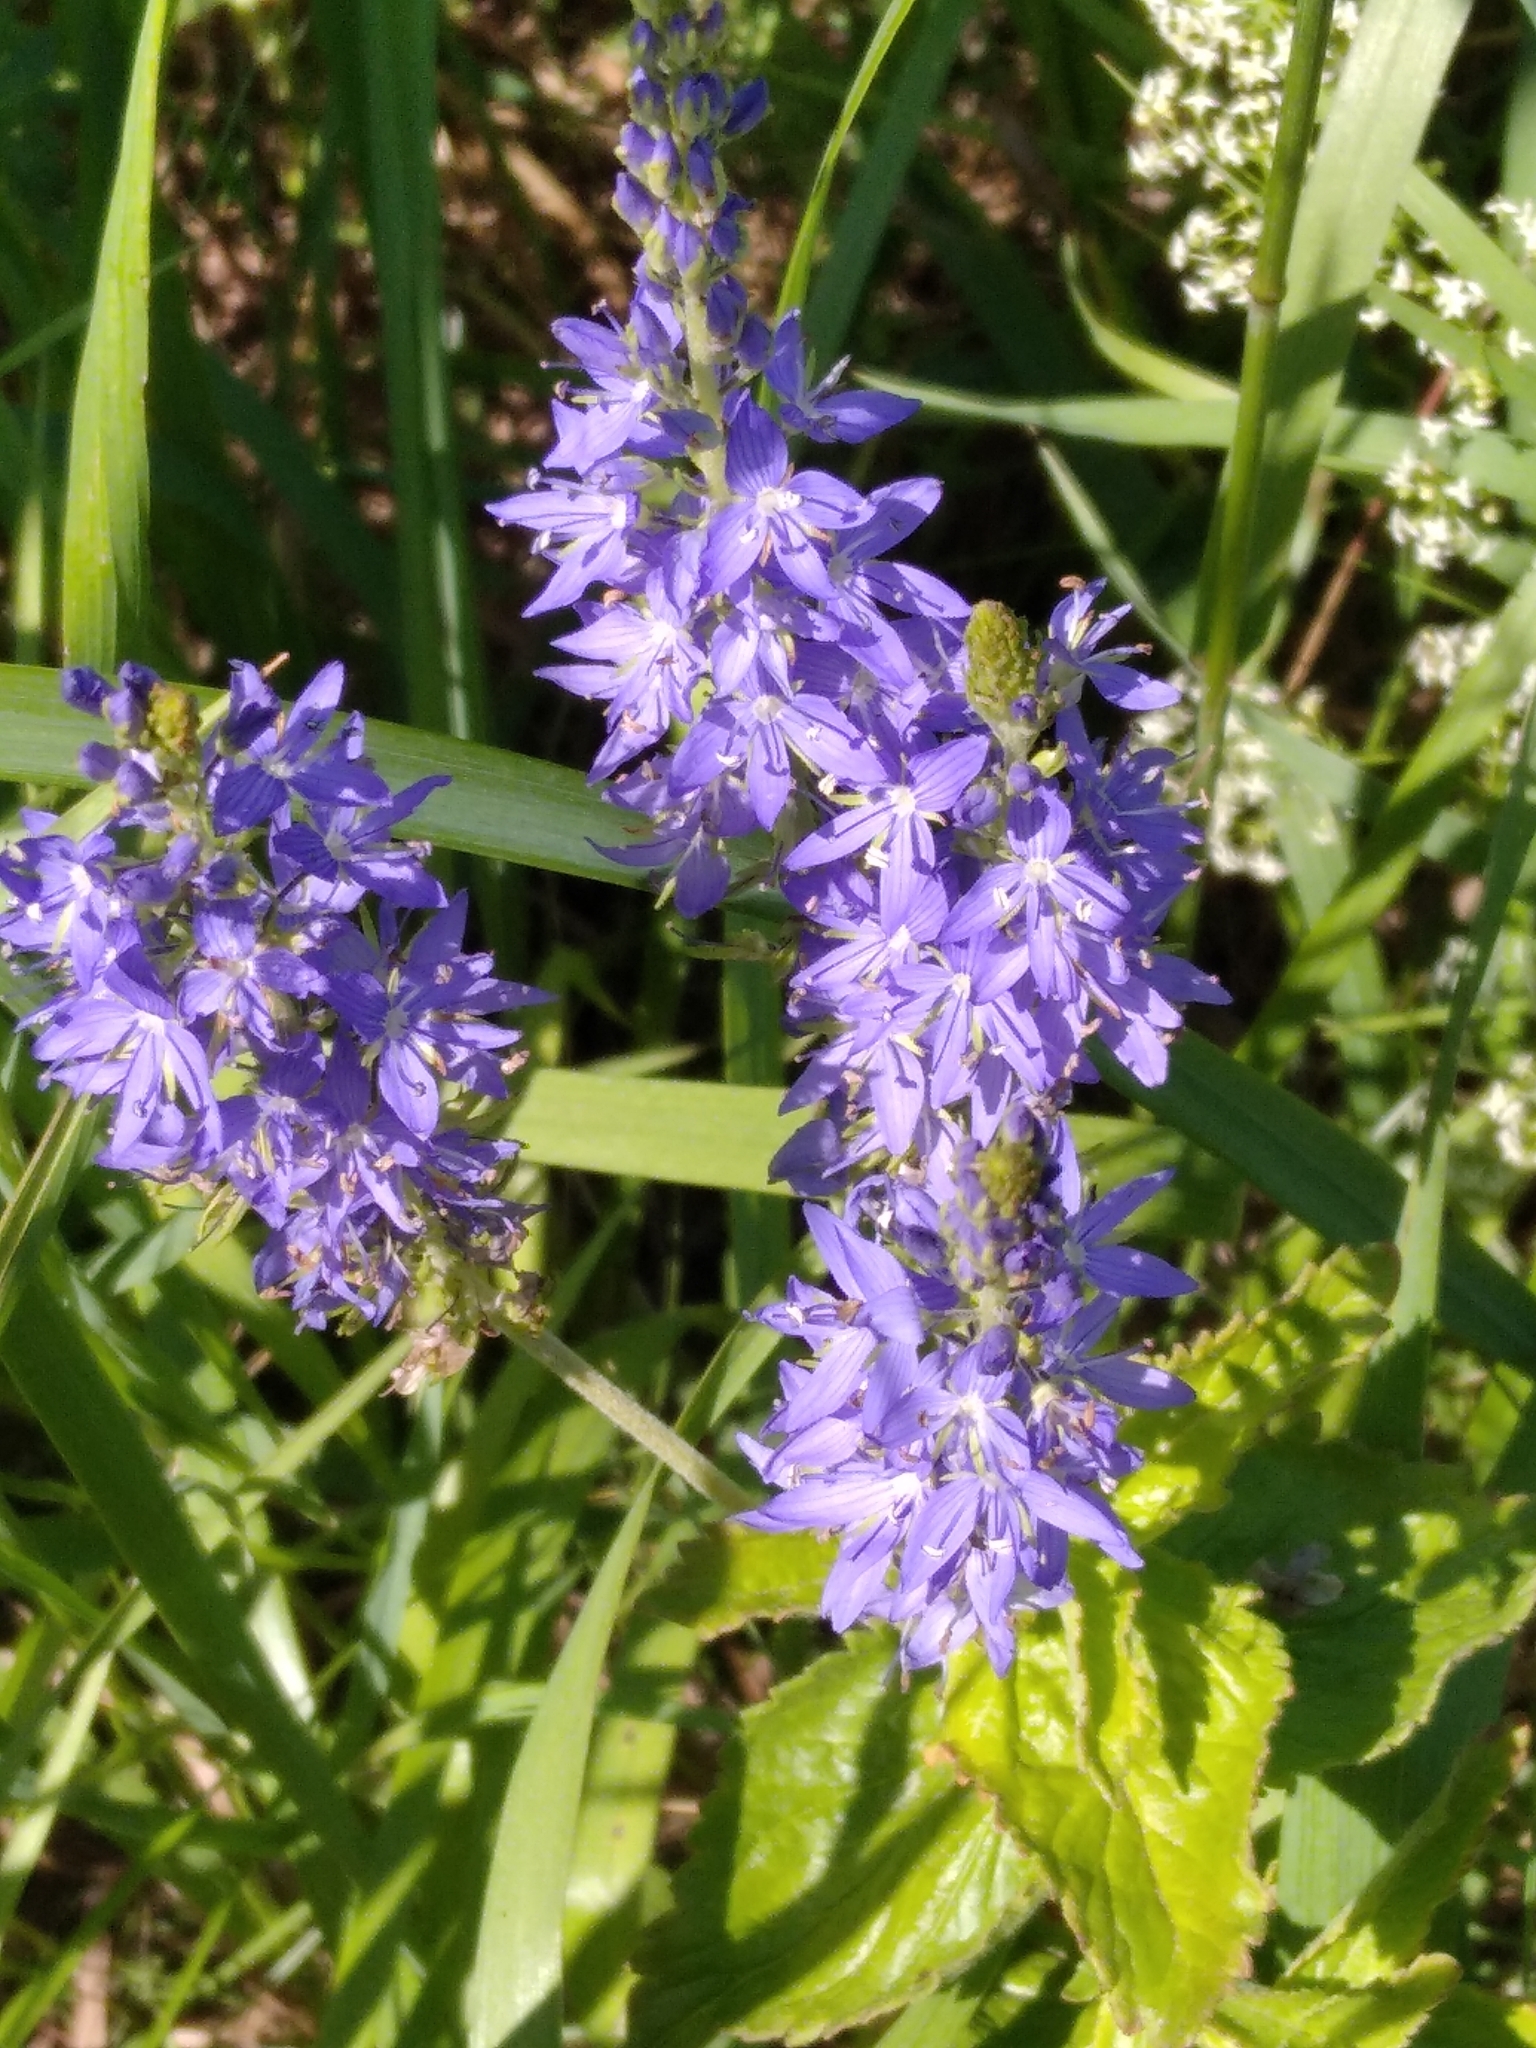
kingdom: Plantae
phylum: Tracheophyta
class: Magnoliopsida
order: Lamiales
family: Plantaginaceae
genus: Veronica
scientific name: Veronica teucrium
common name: Large speedwell
